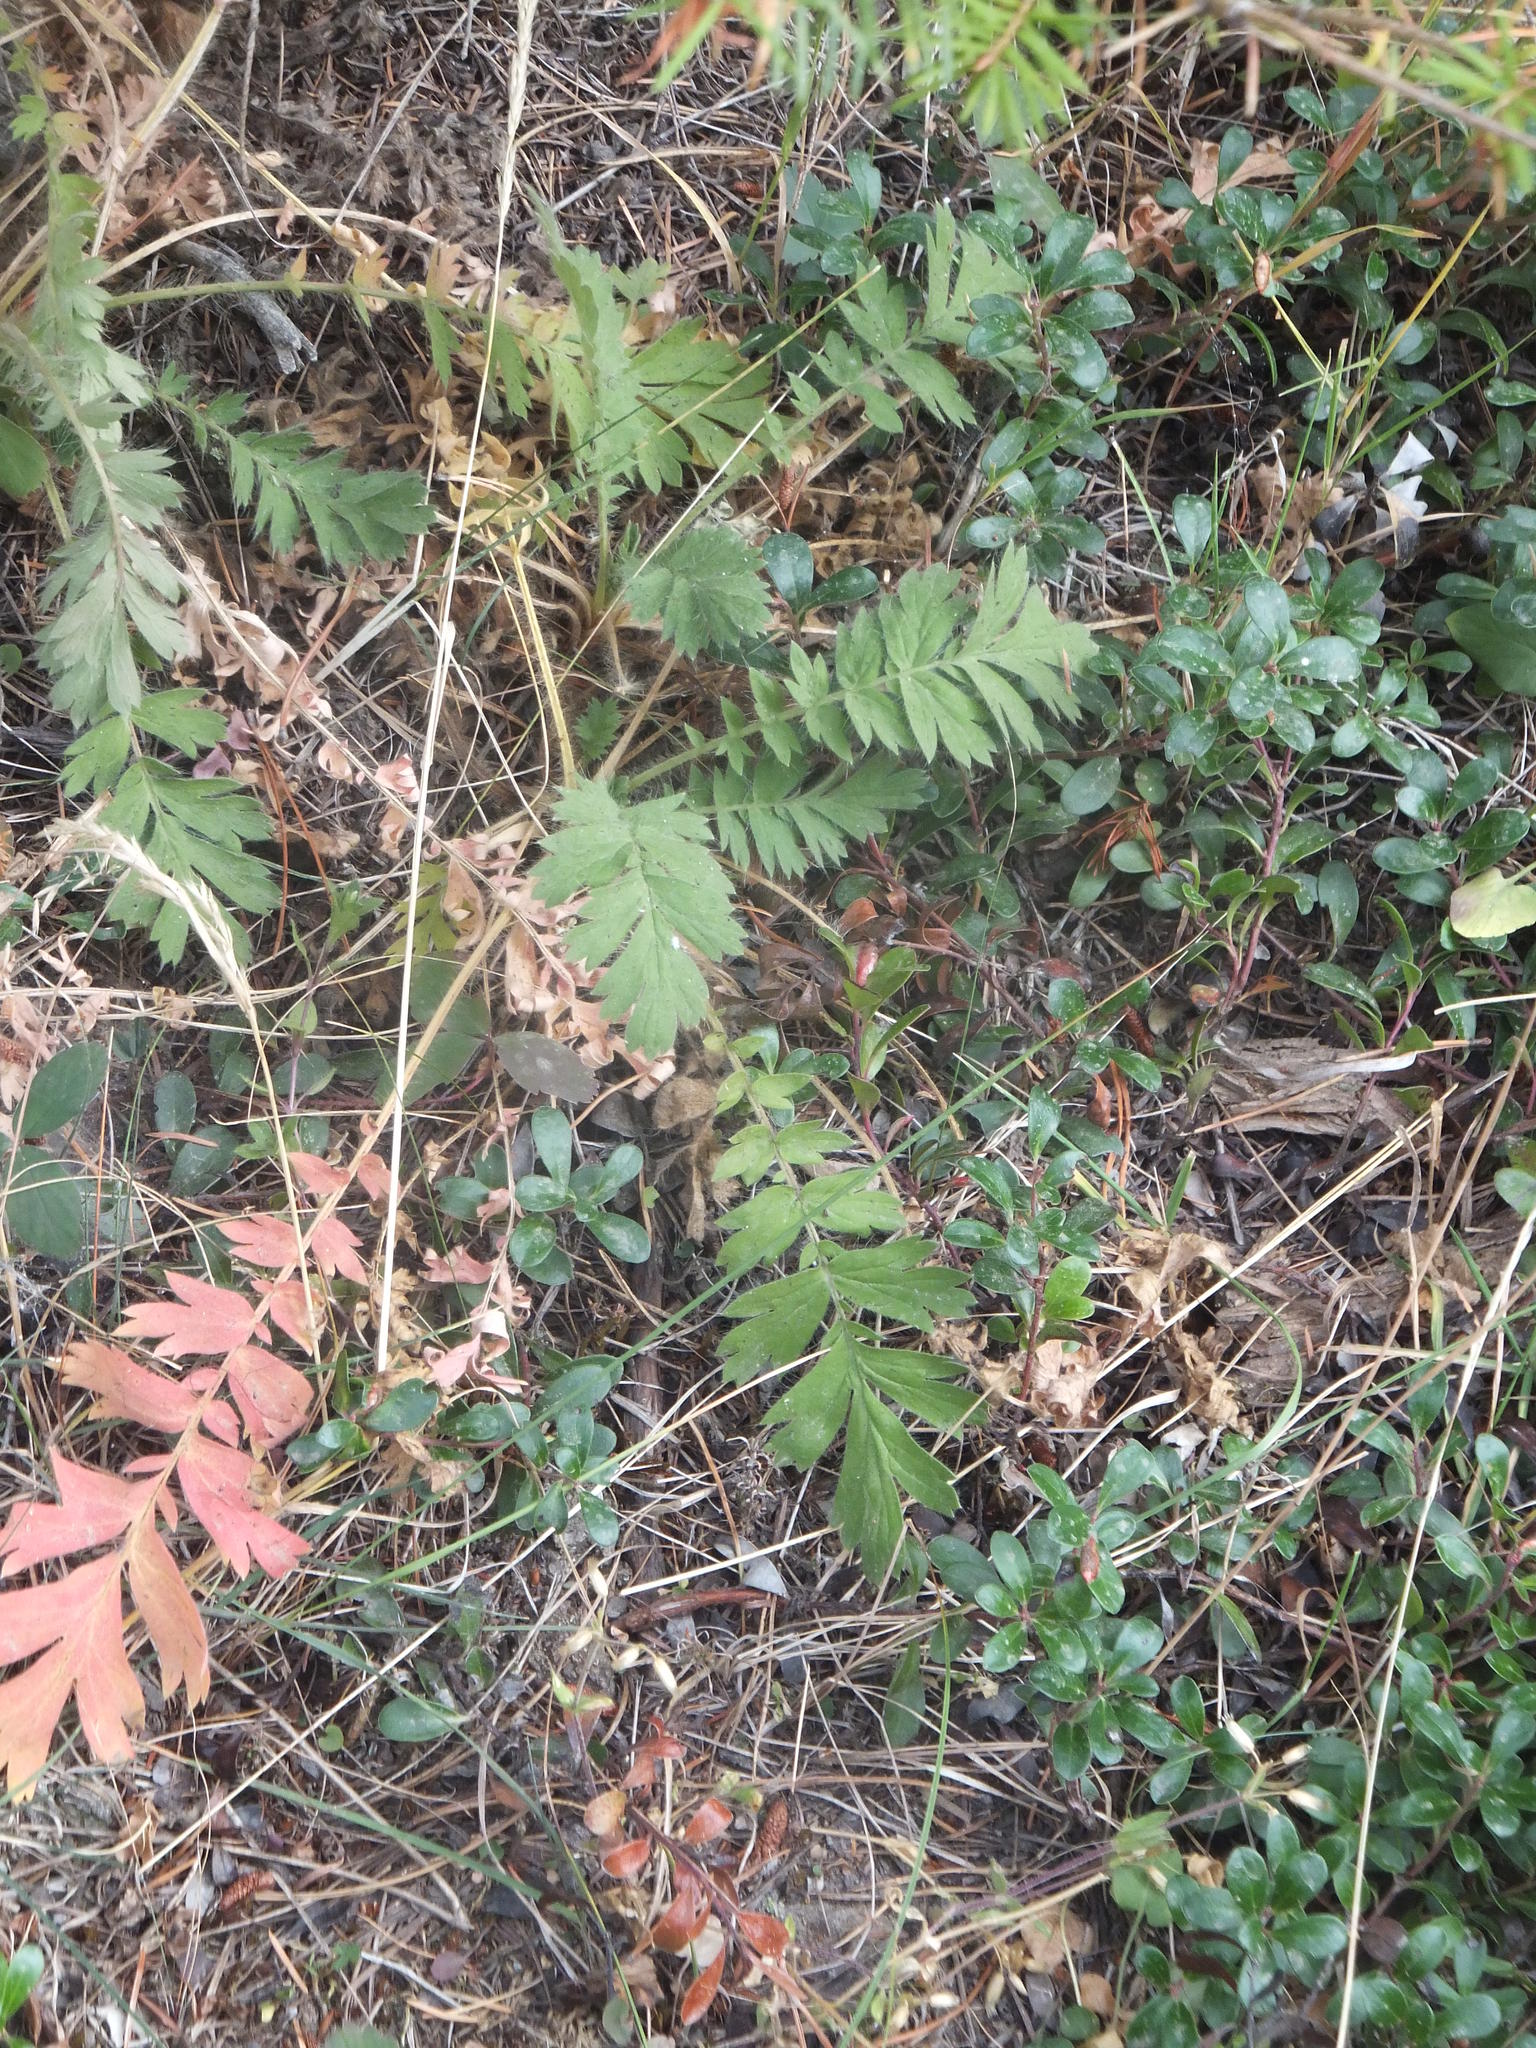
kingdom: Plantae
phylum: Tracheophyta
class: Magnoliopsida
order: Rosales
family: Rosaceae
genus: Geum
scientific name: Geum triflorum
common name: Old man's whiskers
